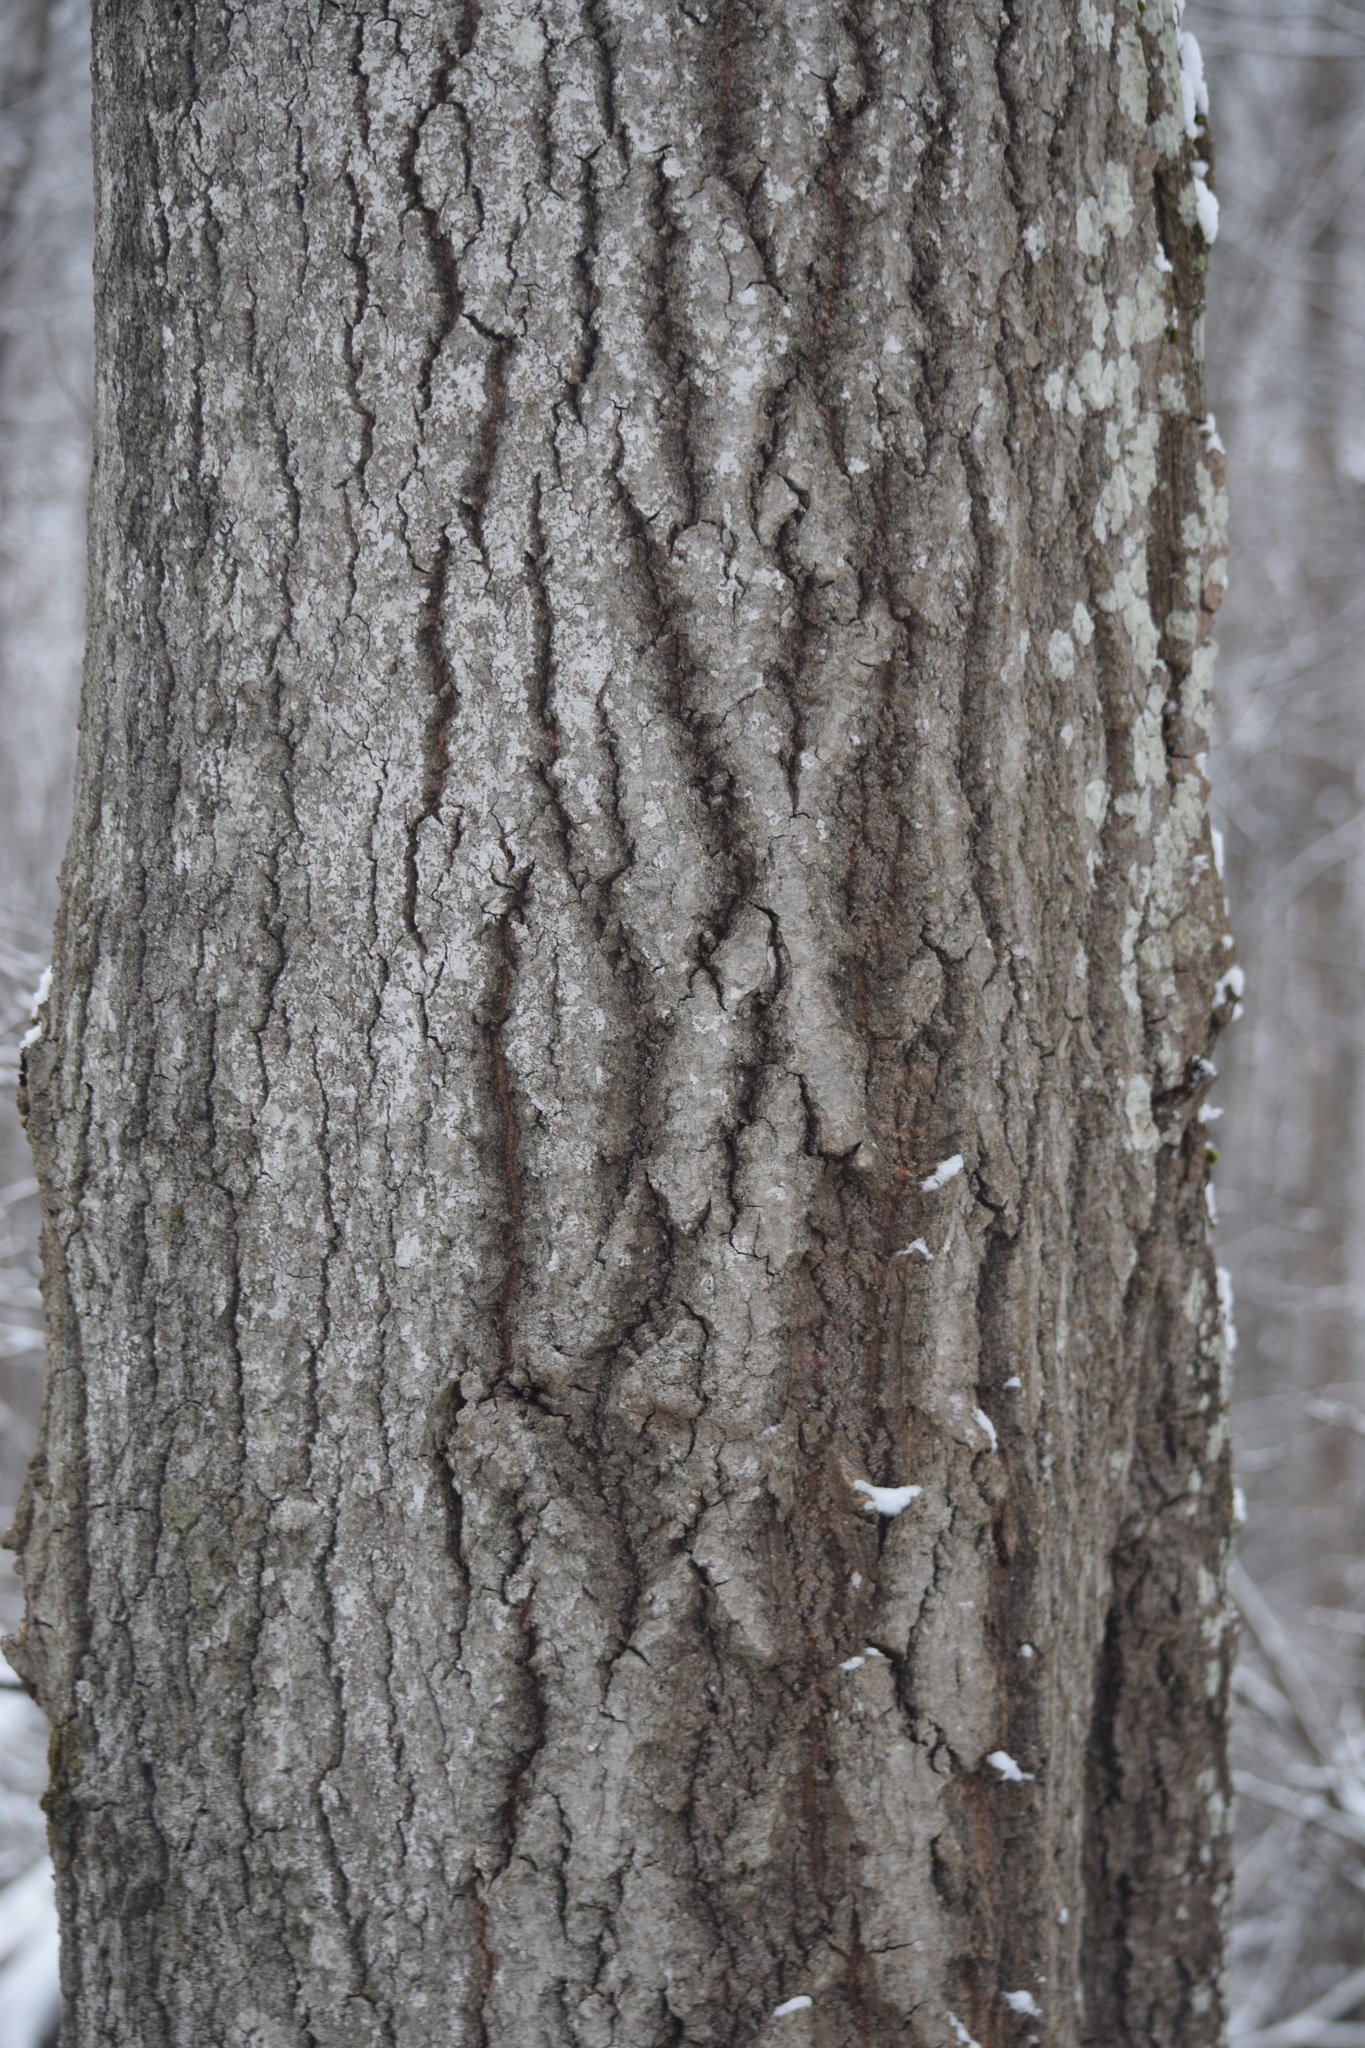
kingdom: Plantae
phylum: Tracheophyta
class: Magnoliopsida
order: Malpighiales
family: Salicaceae
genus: Populus
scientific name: Populus tremula
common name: European aspen
